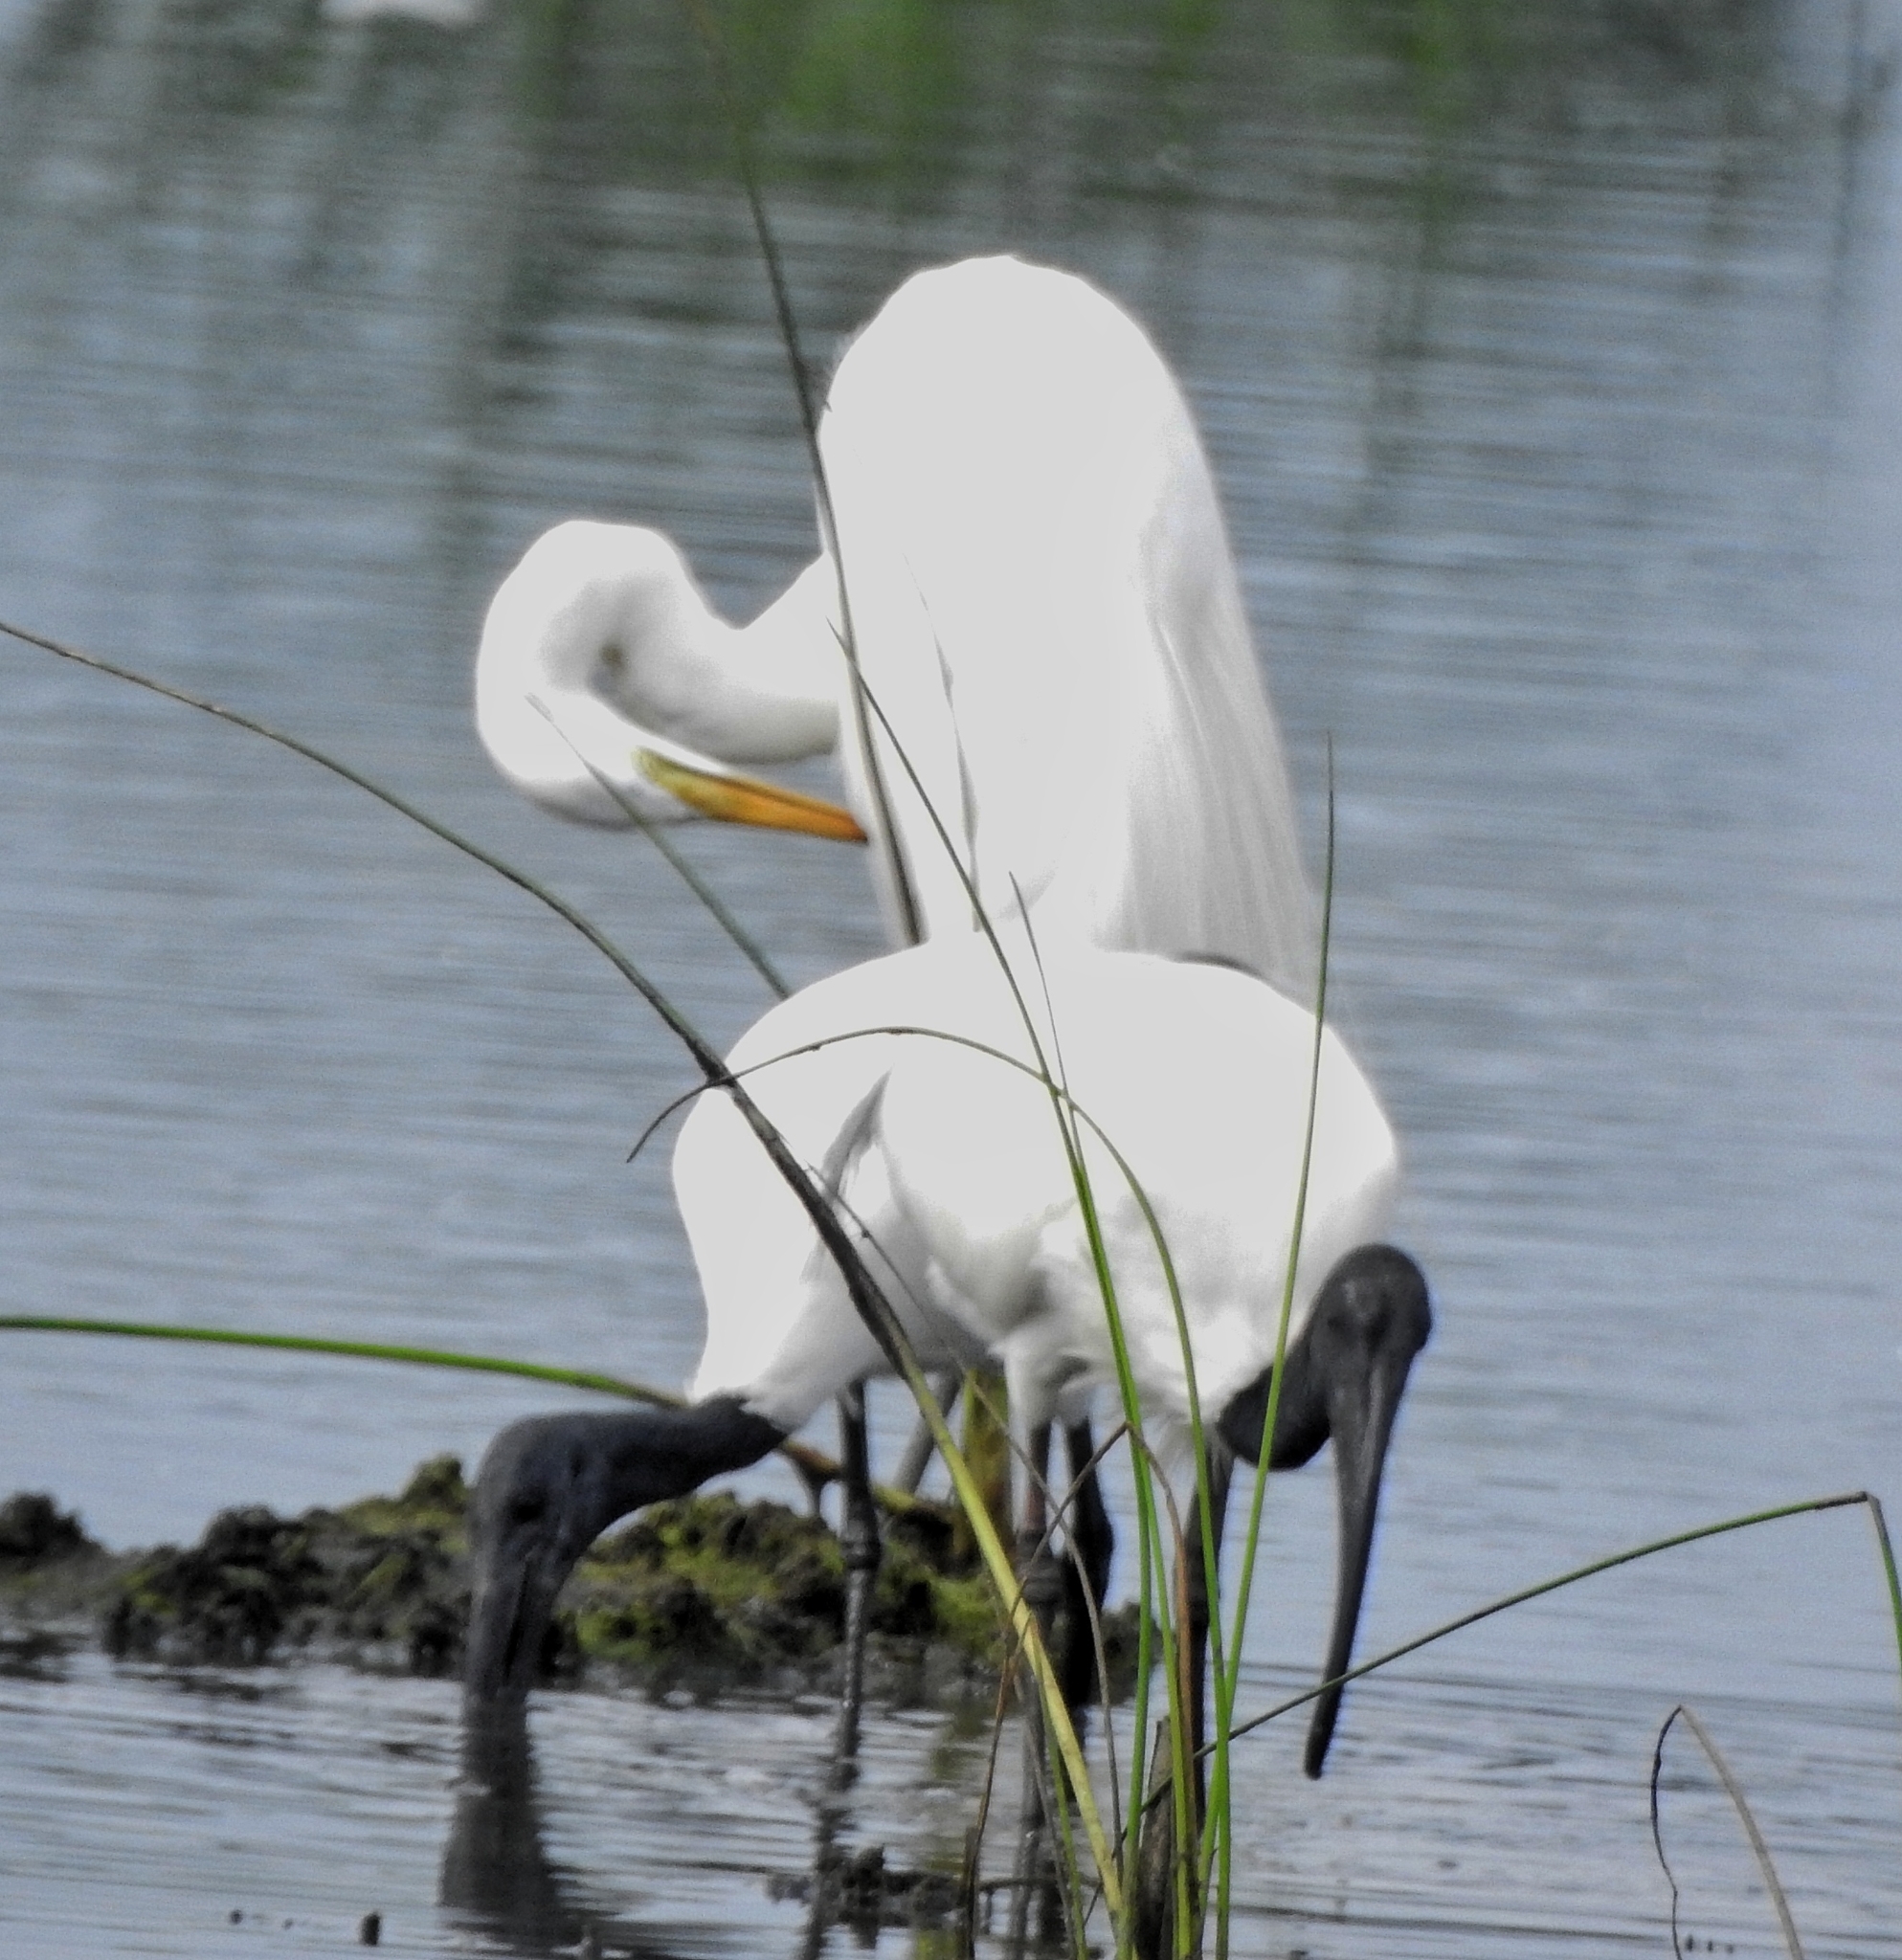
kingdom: Animalia
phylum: Chordata
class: Aves
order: Pelecaniformes
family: Ardeidae
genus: Ardea
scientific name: Ardea alba
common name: Great egret
